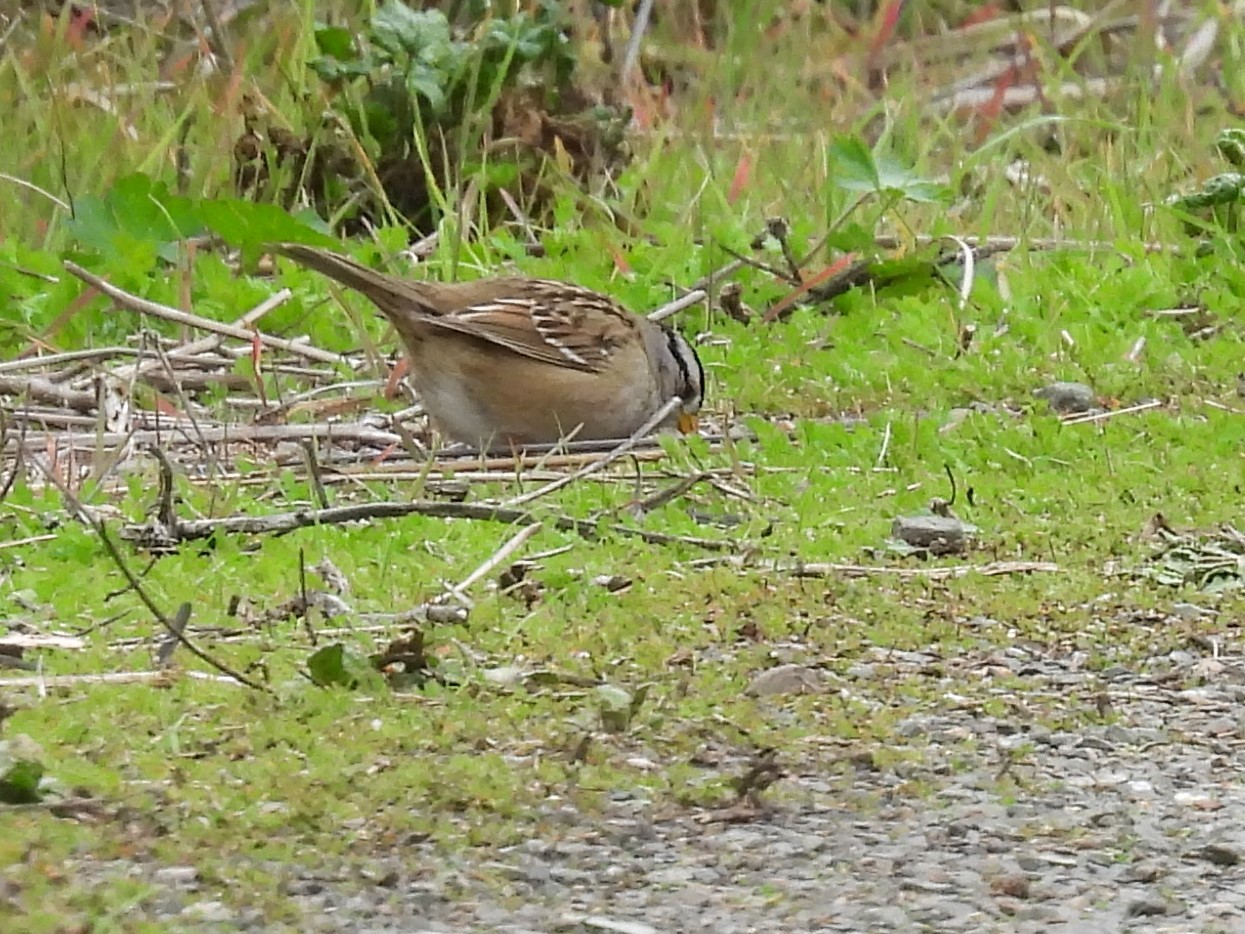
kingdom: Animalia
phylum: Chordata
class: Aves
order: Passeriformes
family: Passerellidae
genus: Zonotrichia
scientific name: Zonotrichia leucophrys
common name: White-crowned sparrow
